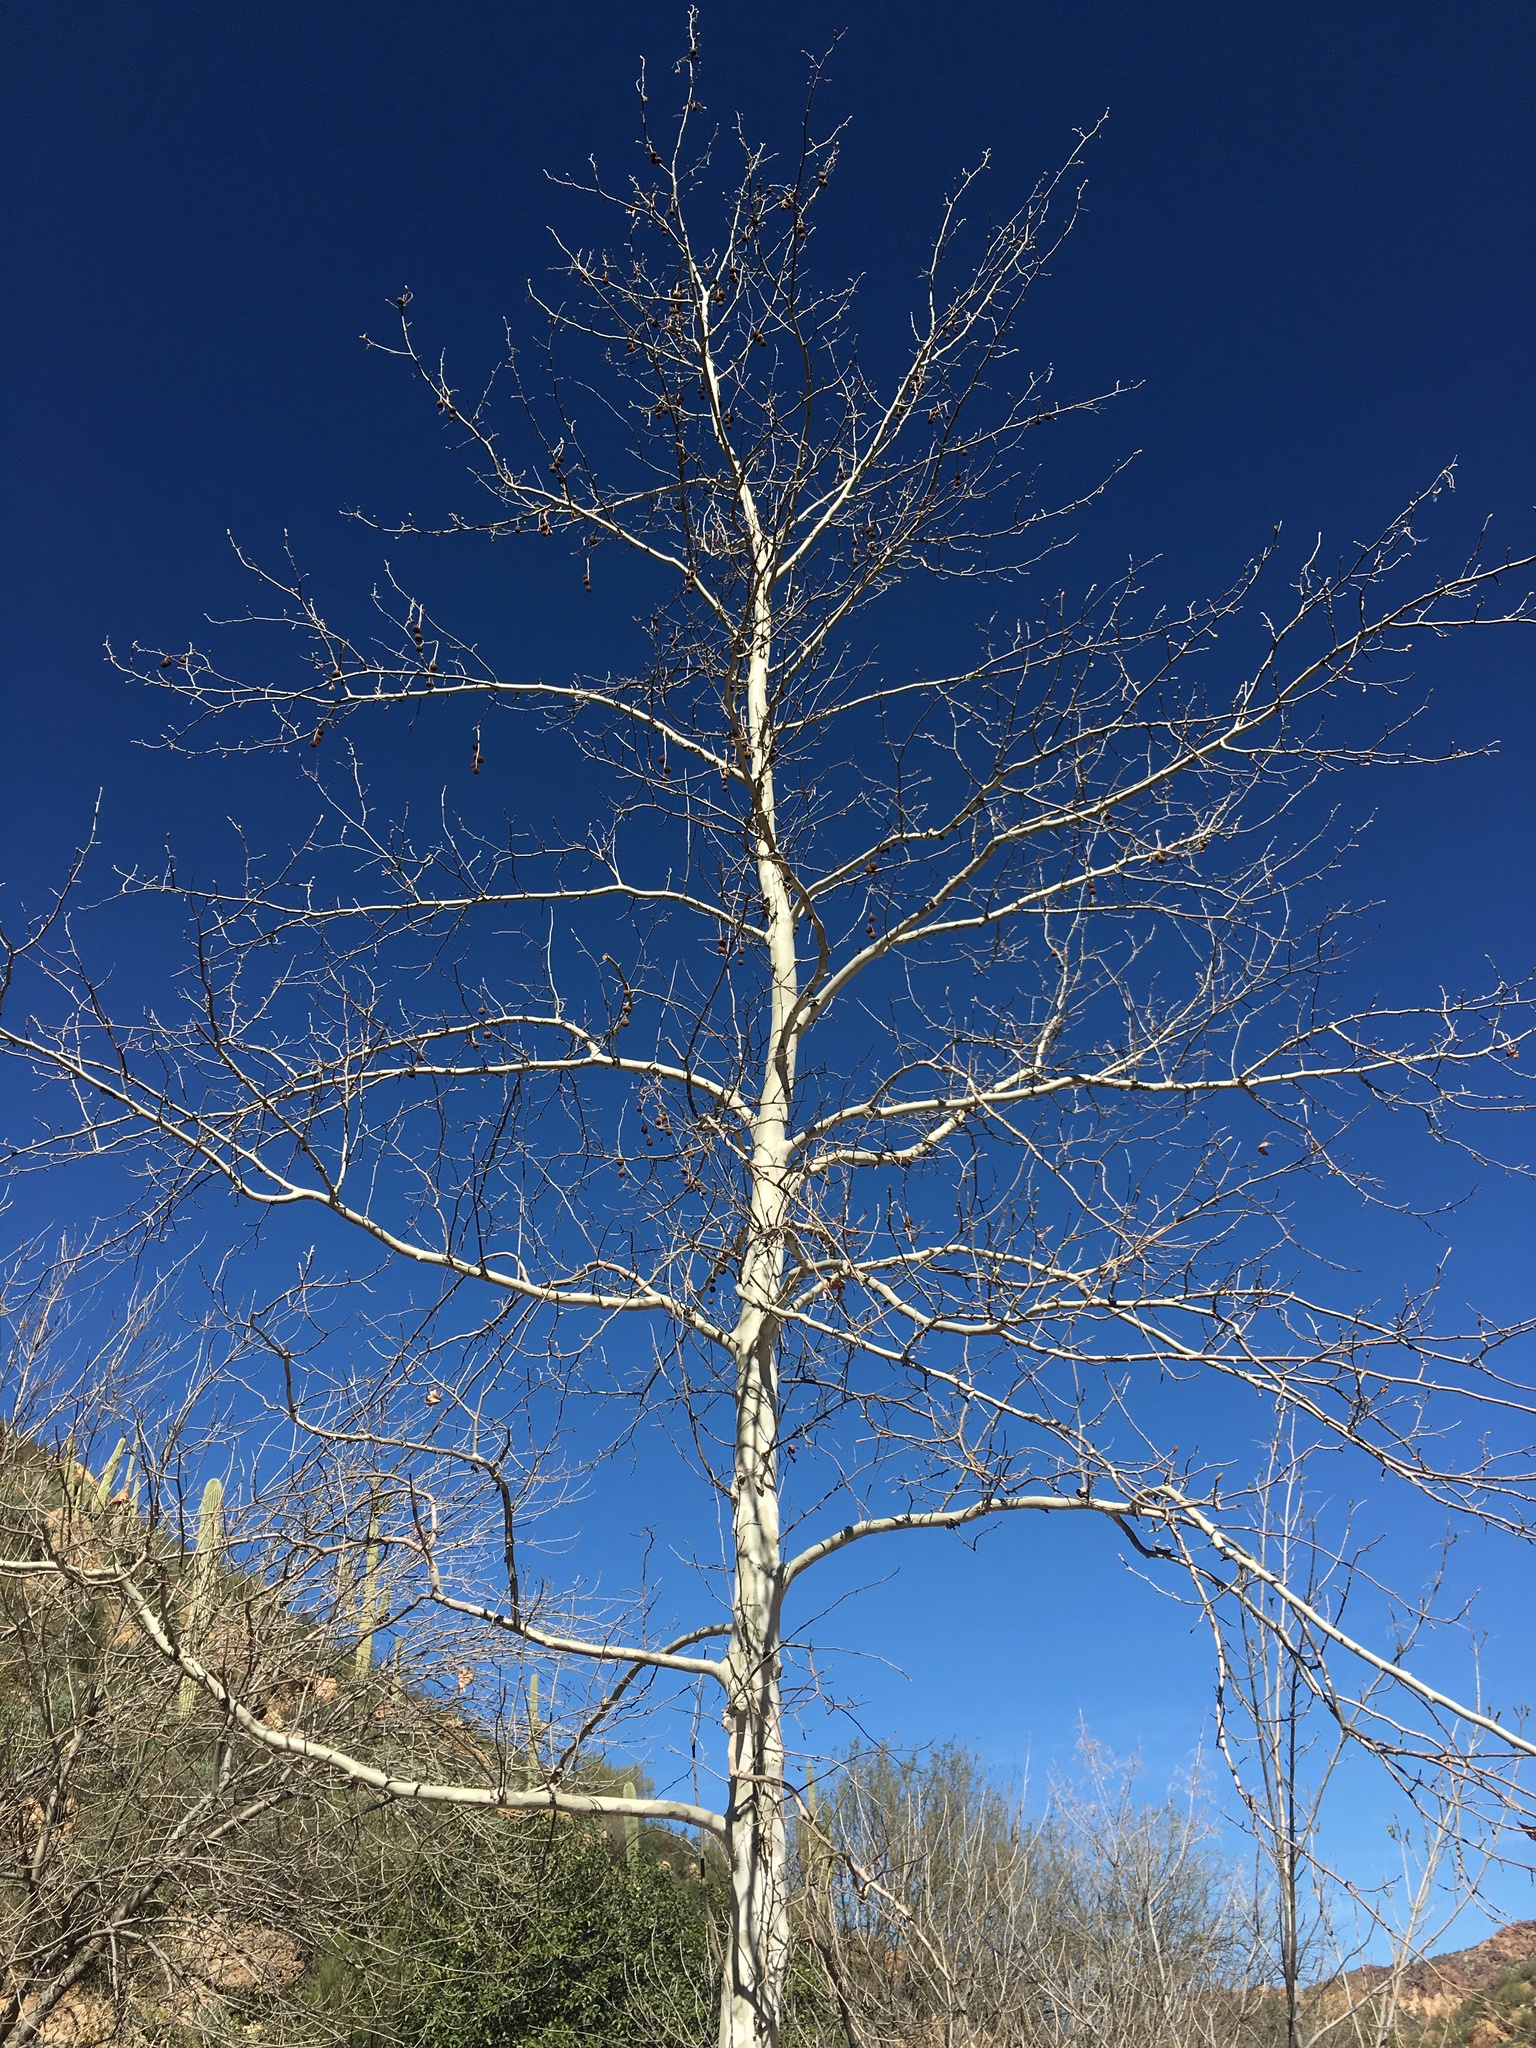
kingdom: Plantae
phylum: Tracheophyta
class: Magnoliopsida
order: Proteales
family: Platanaceae
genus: Platanus
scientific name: Platanus wrightii
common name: Arizona sycamore
